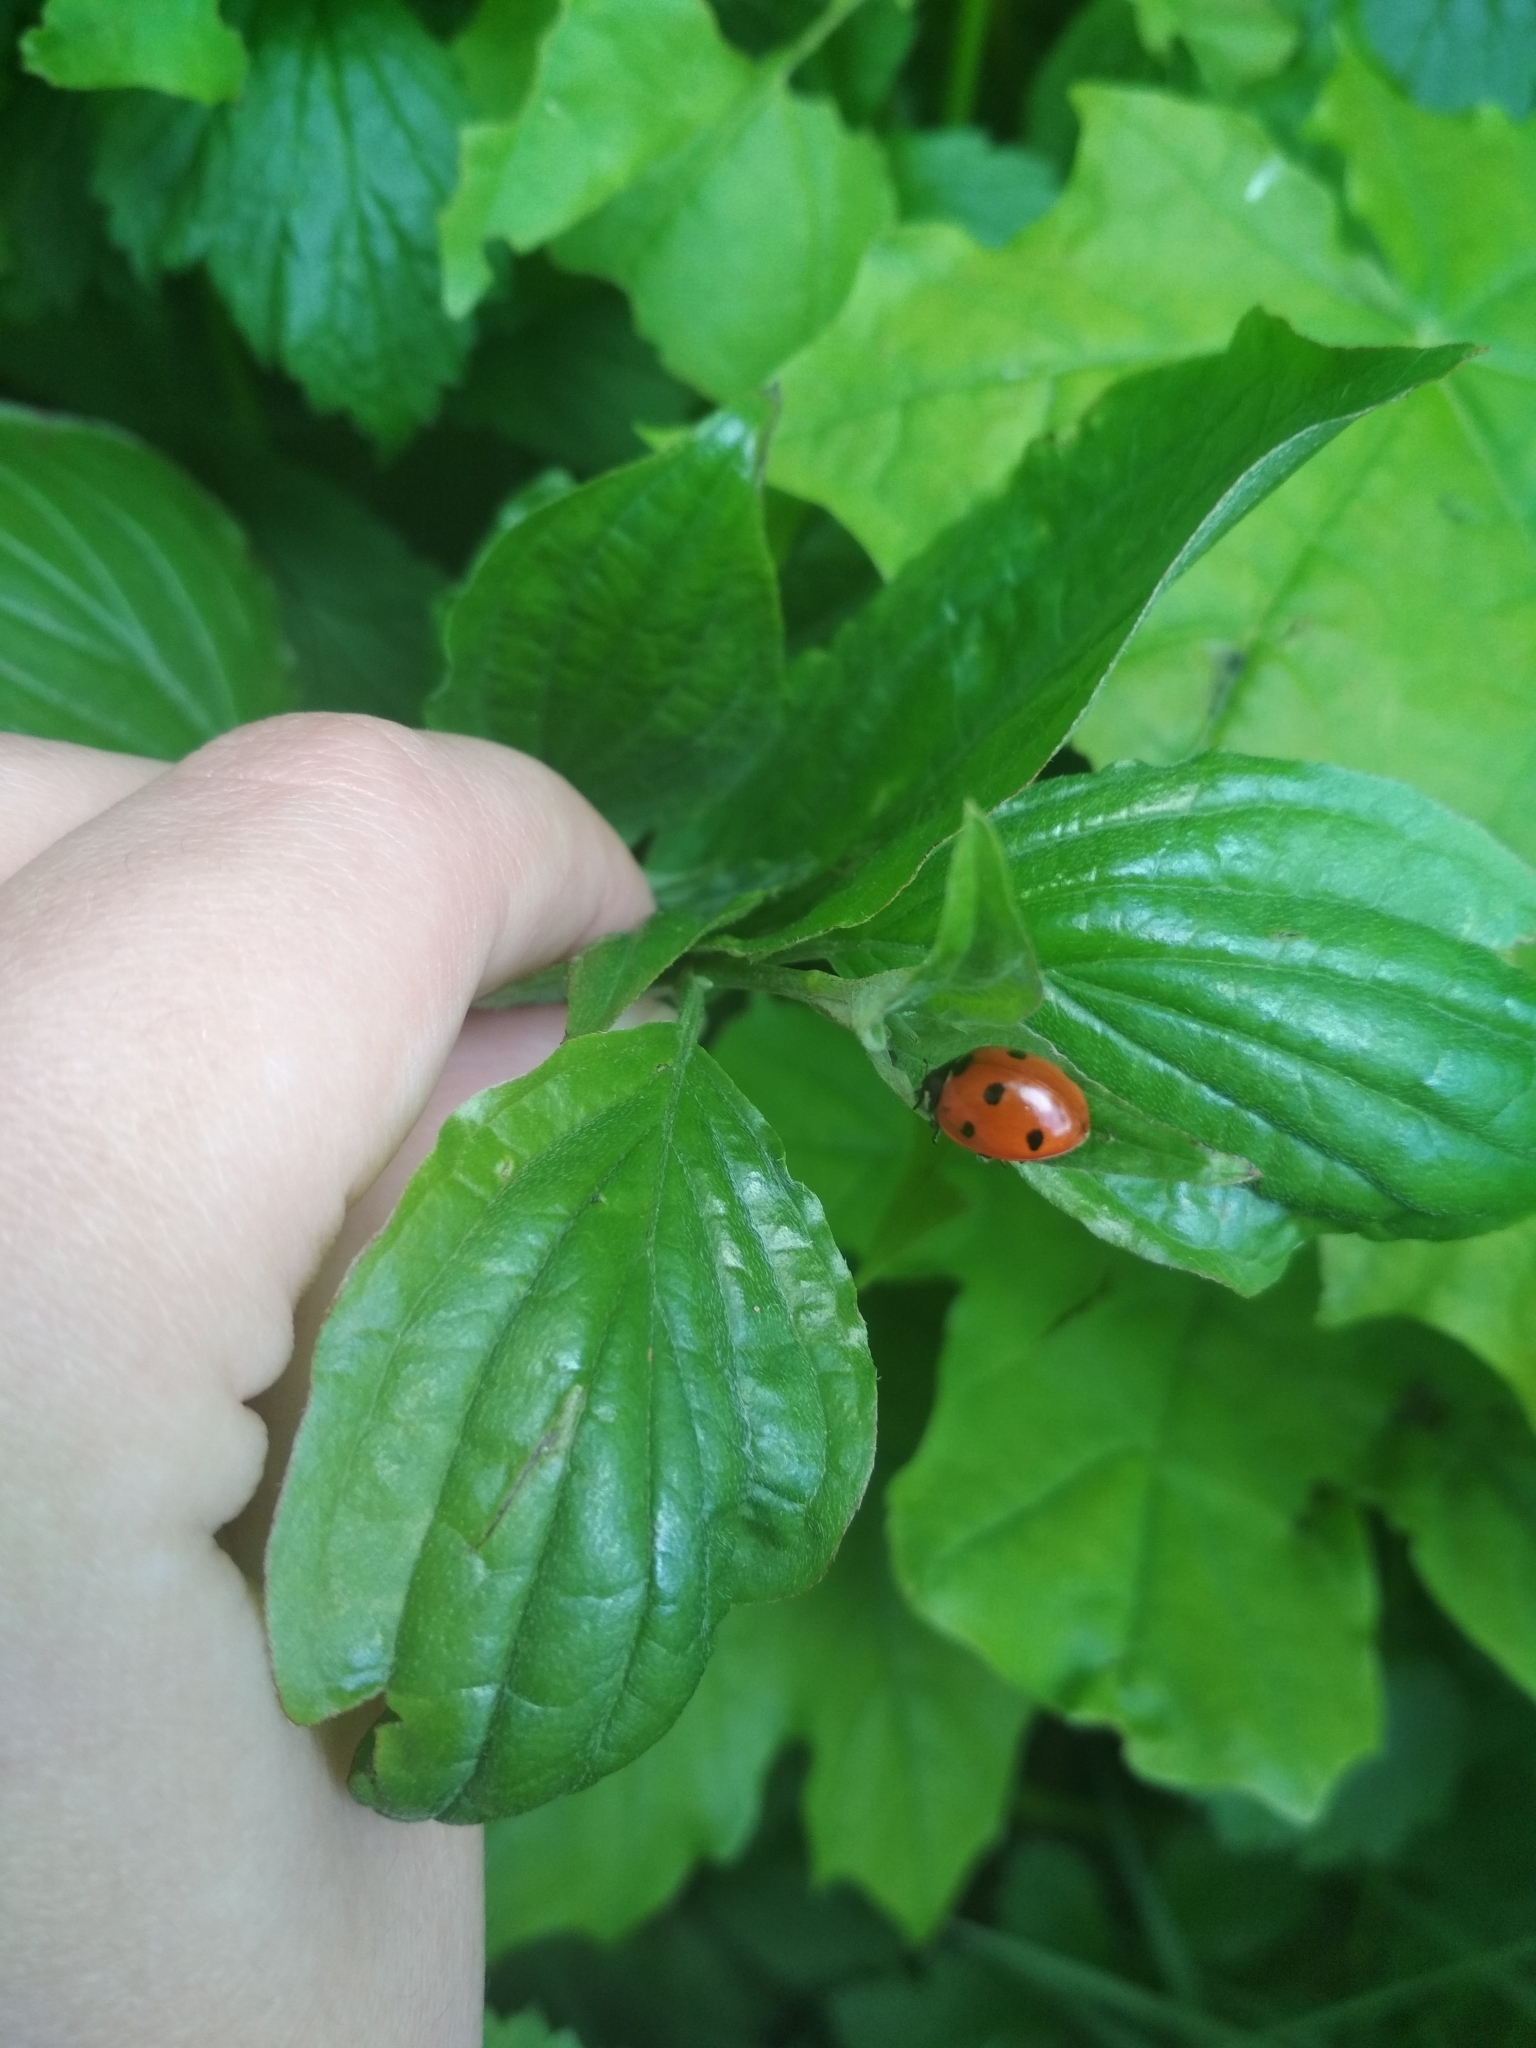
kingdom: Animalia
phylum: Arthropoda
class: Insecta
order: Coleoptera
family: Coccinellidae
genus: Coccinella
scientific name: Coccinella septempunctata
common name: Sevenspotted lady beetle
